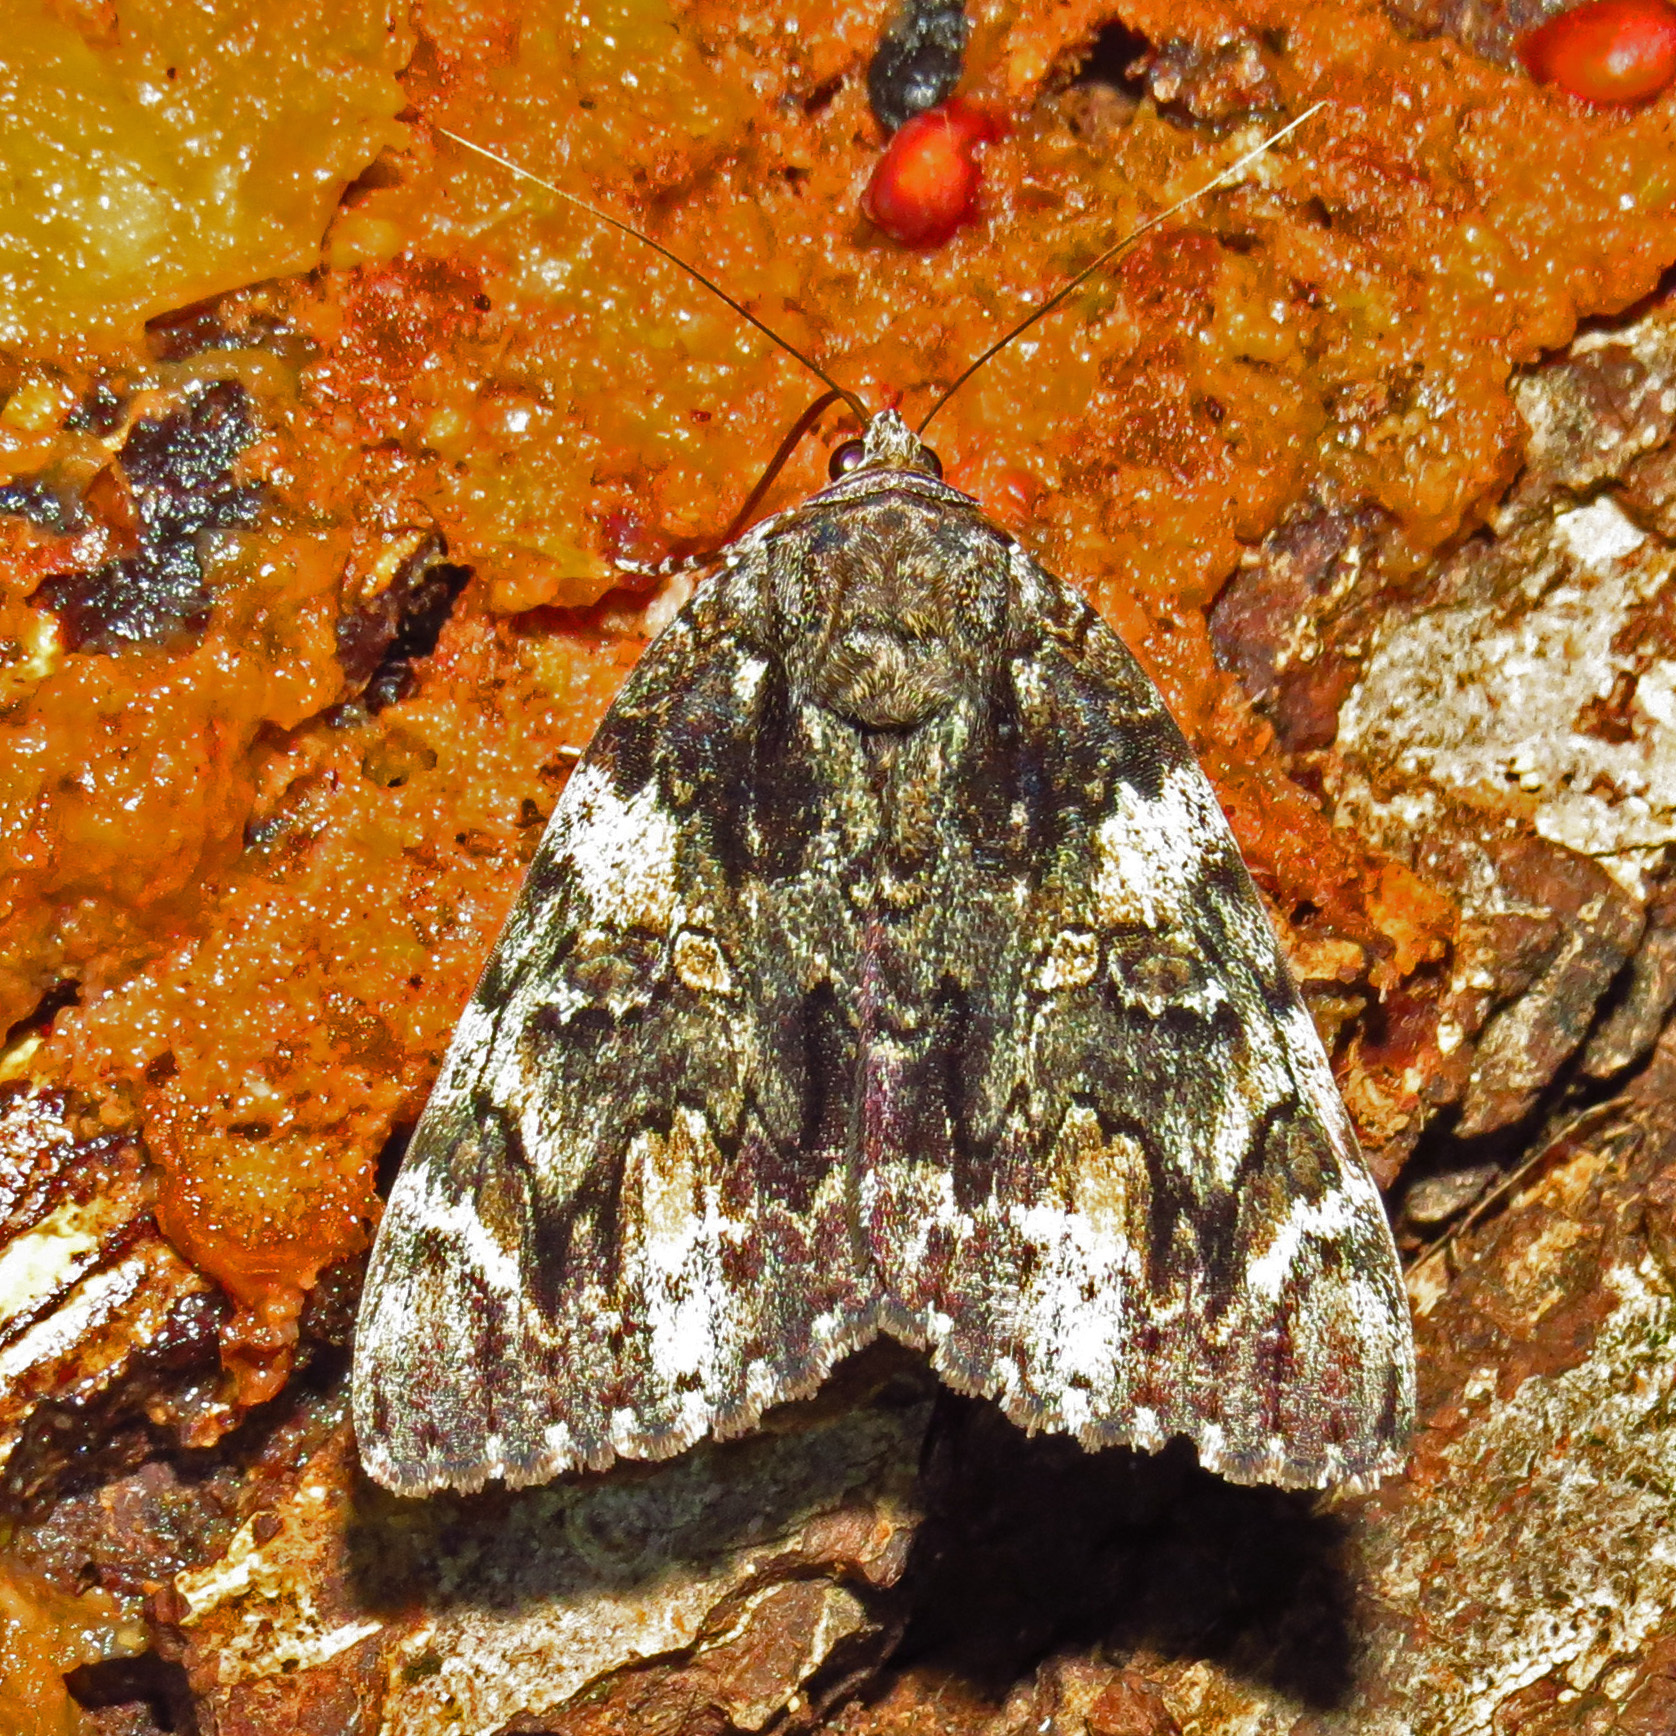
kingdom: Animalia
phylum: Arthropoda
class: Insecta
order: Lepidoptera
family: Erebidae
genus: Catocala
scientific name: Catocala lacrymosa
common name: Tearful underwing
